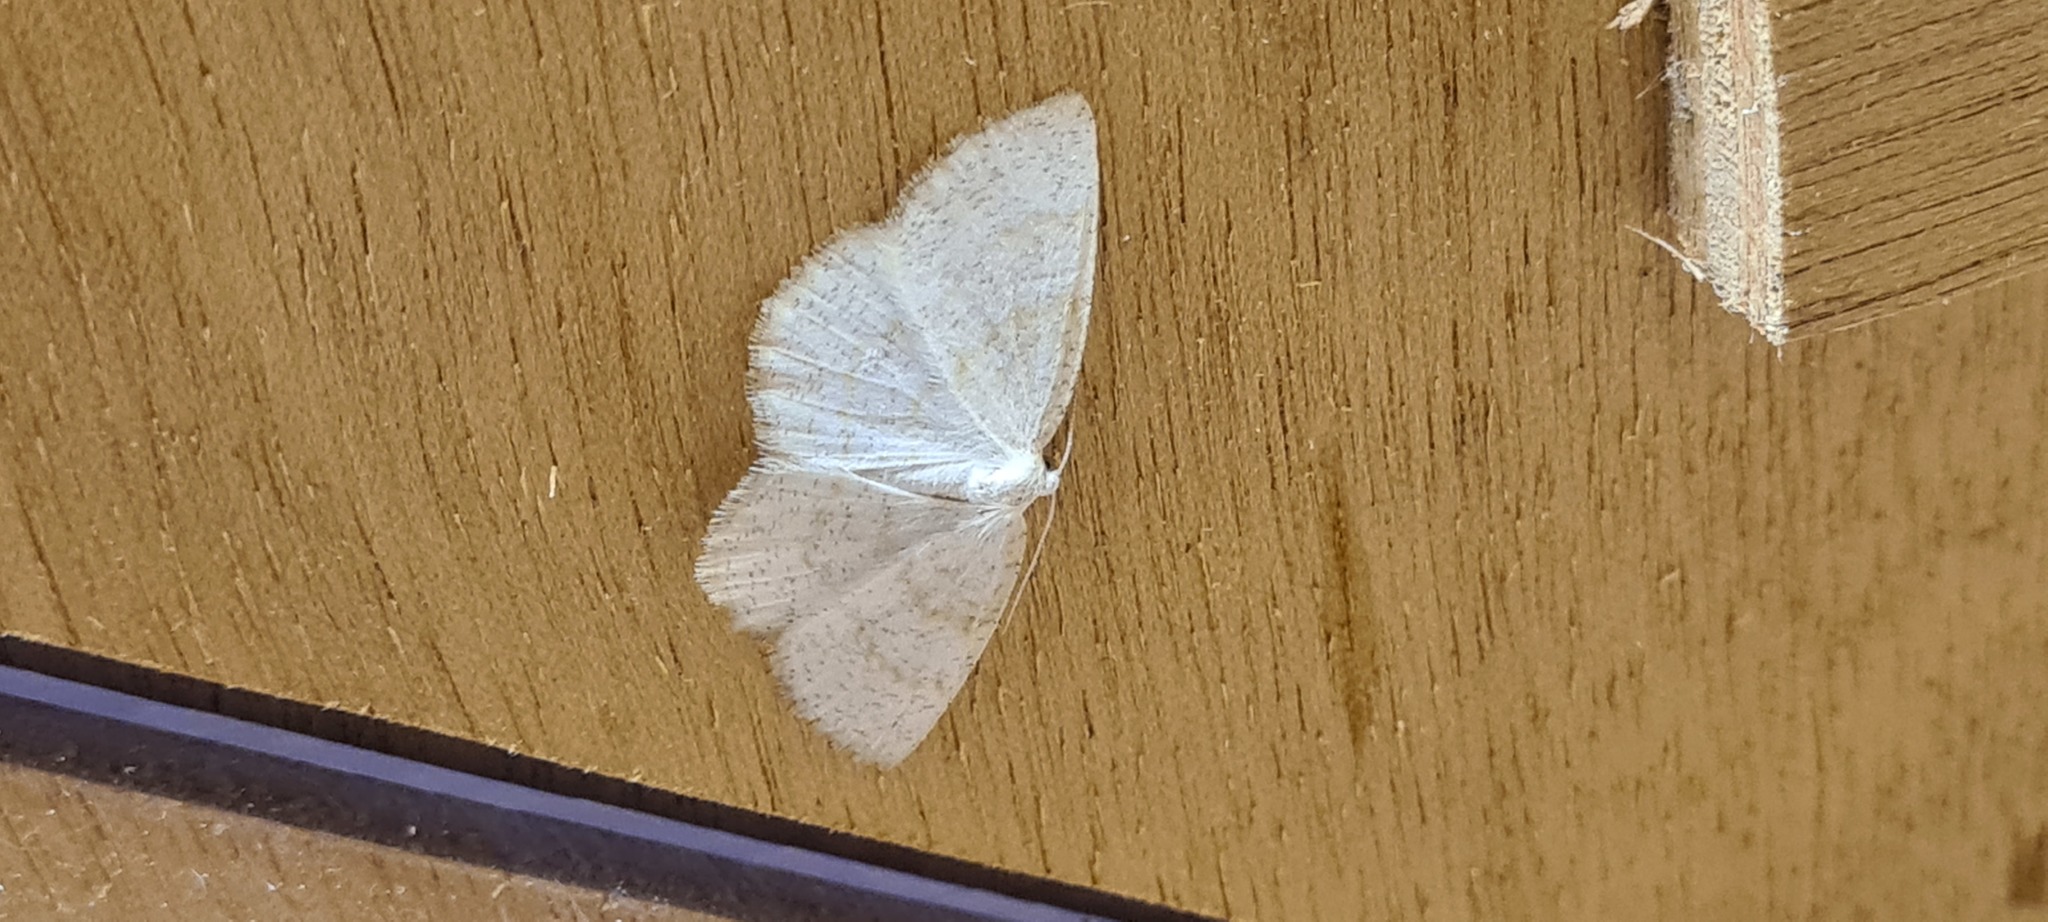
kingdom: Animalia
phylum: Arthropoda
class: Insecta
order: Lepidoptera
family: Geometridae
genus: Cabera
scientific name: Cabera exanthemata
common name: Common wave
